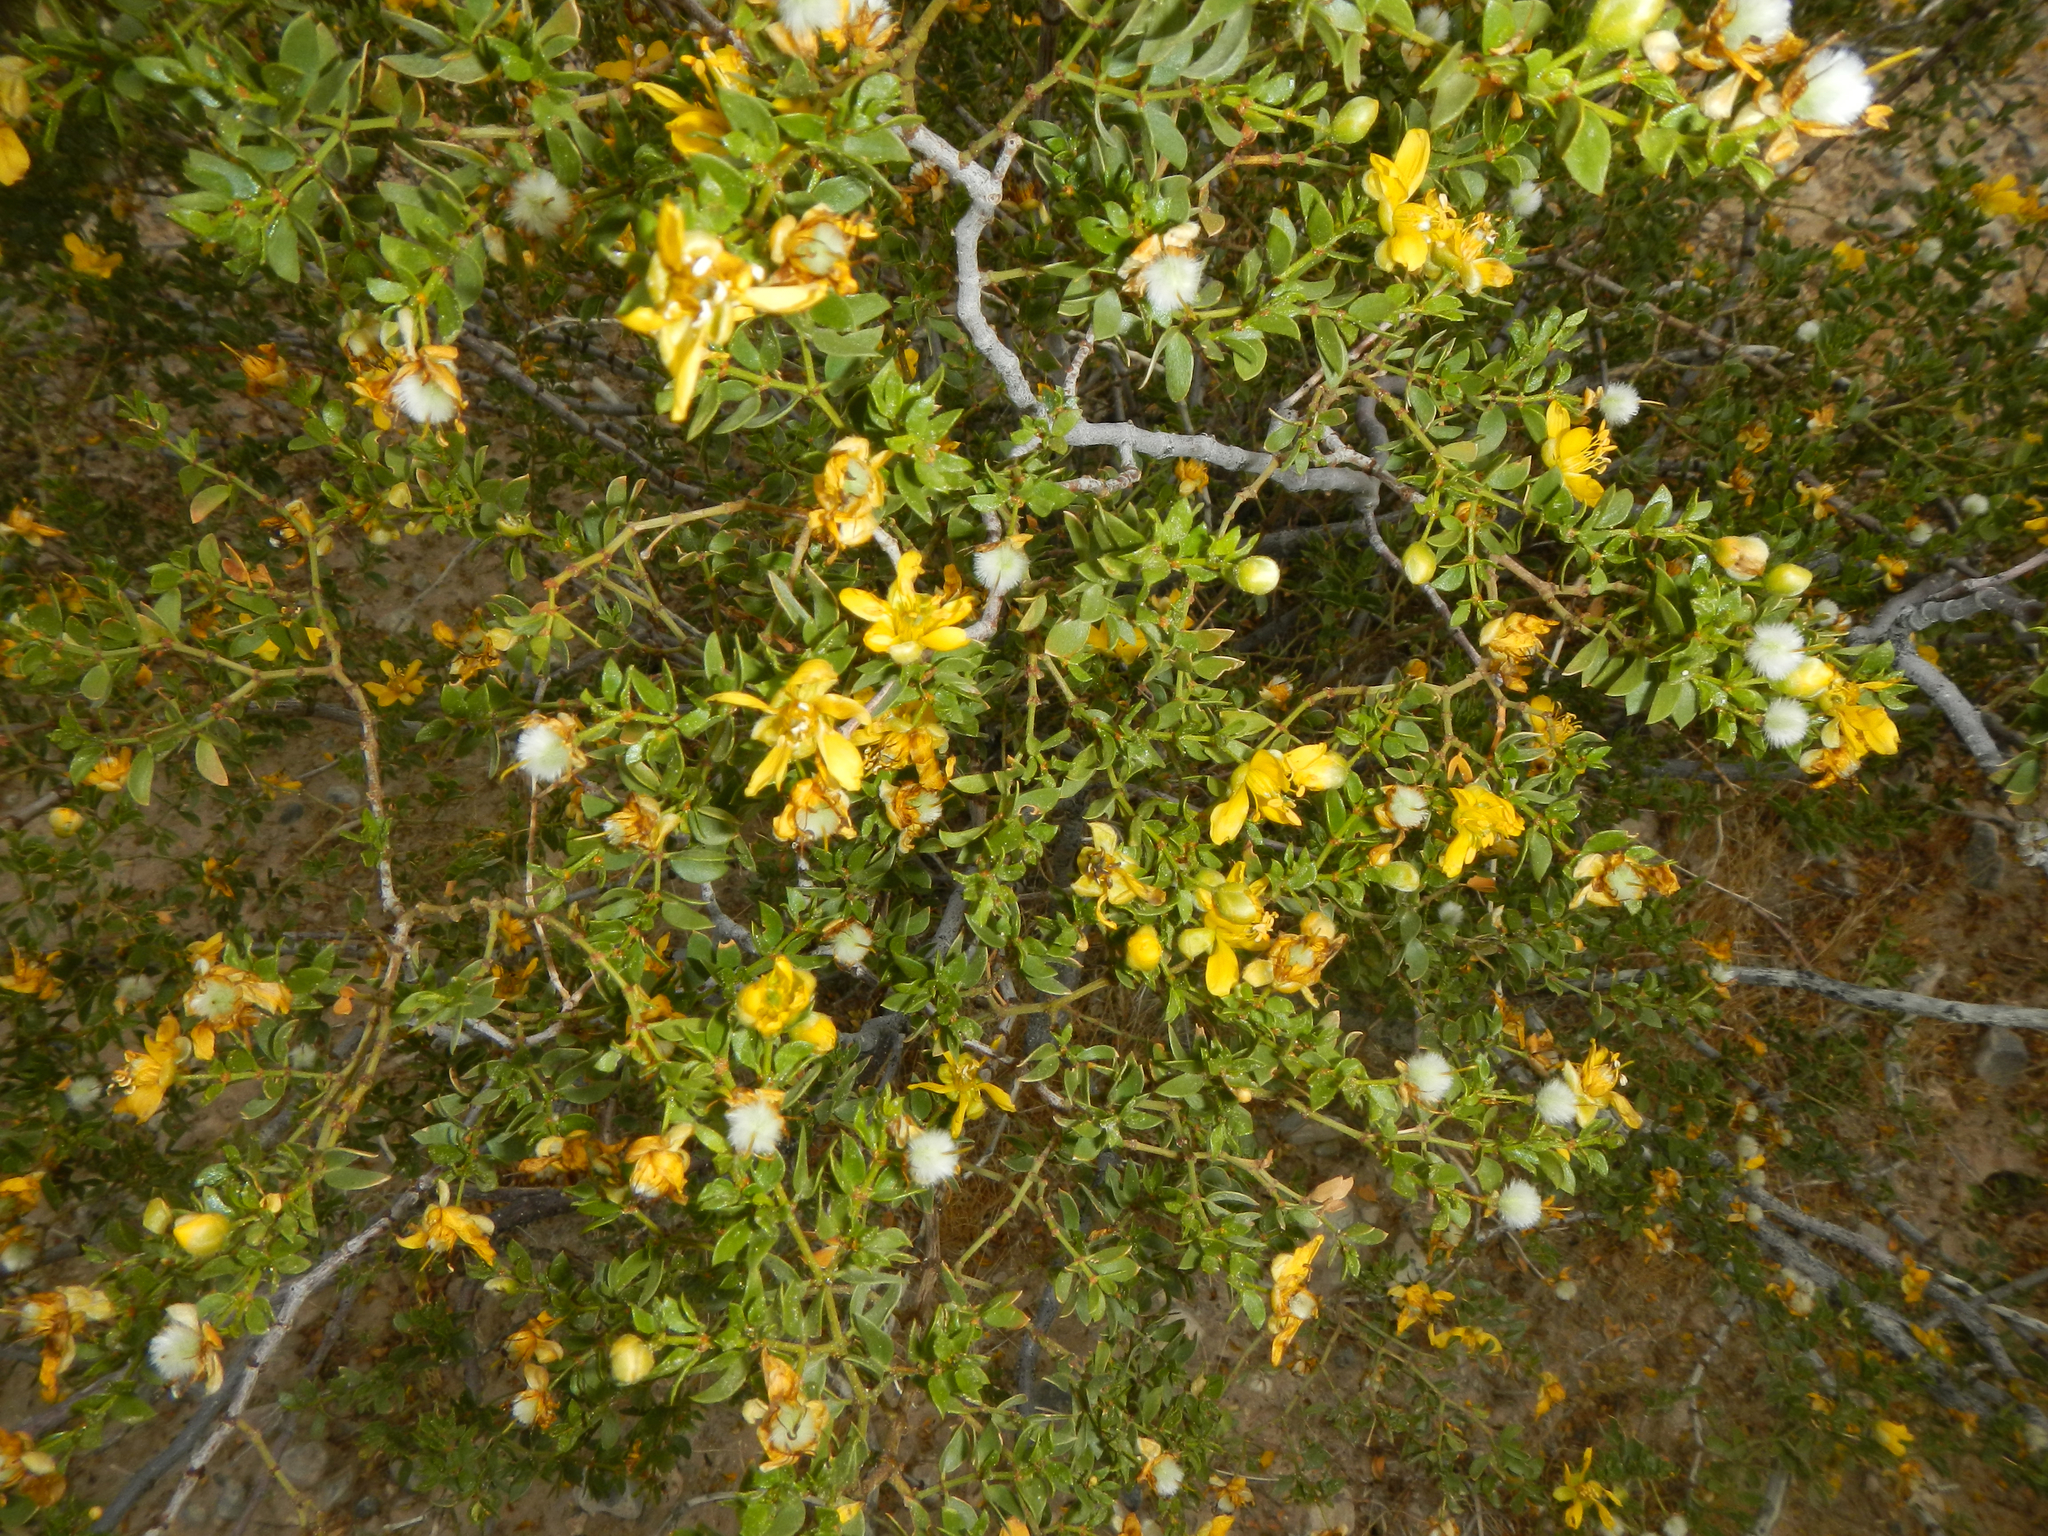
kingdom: Plantae
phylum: Tracheophyta
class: Magnoliopsida
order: Zygophyllales
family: Zygophyllaceae
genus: Larrea
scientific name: Larrea tridentata
